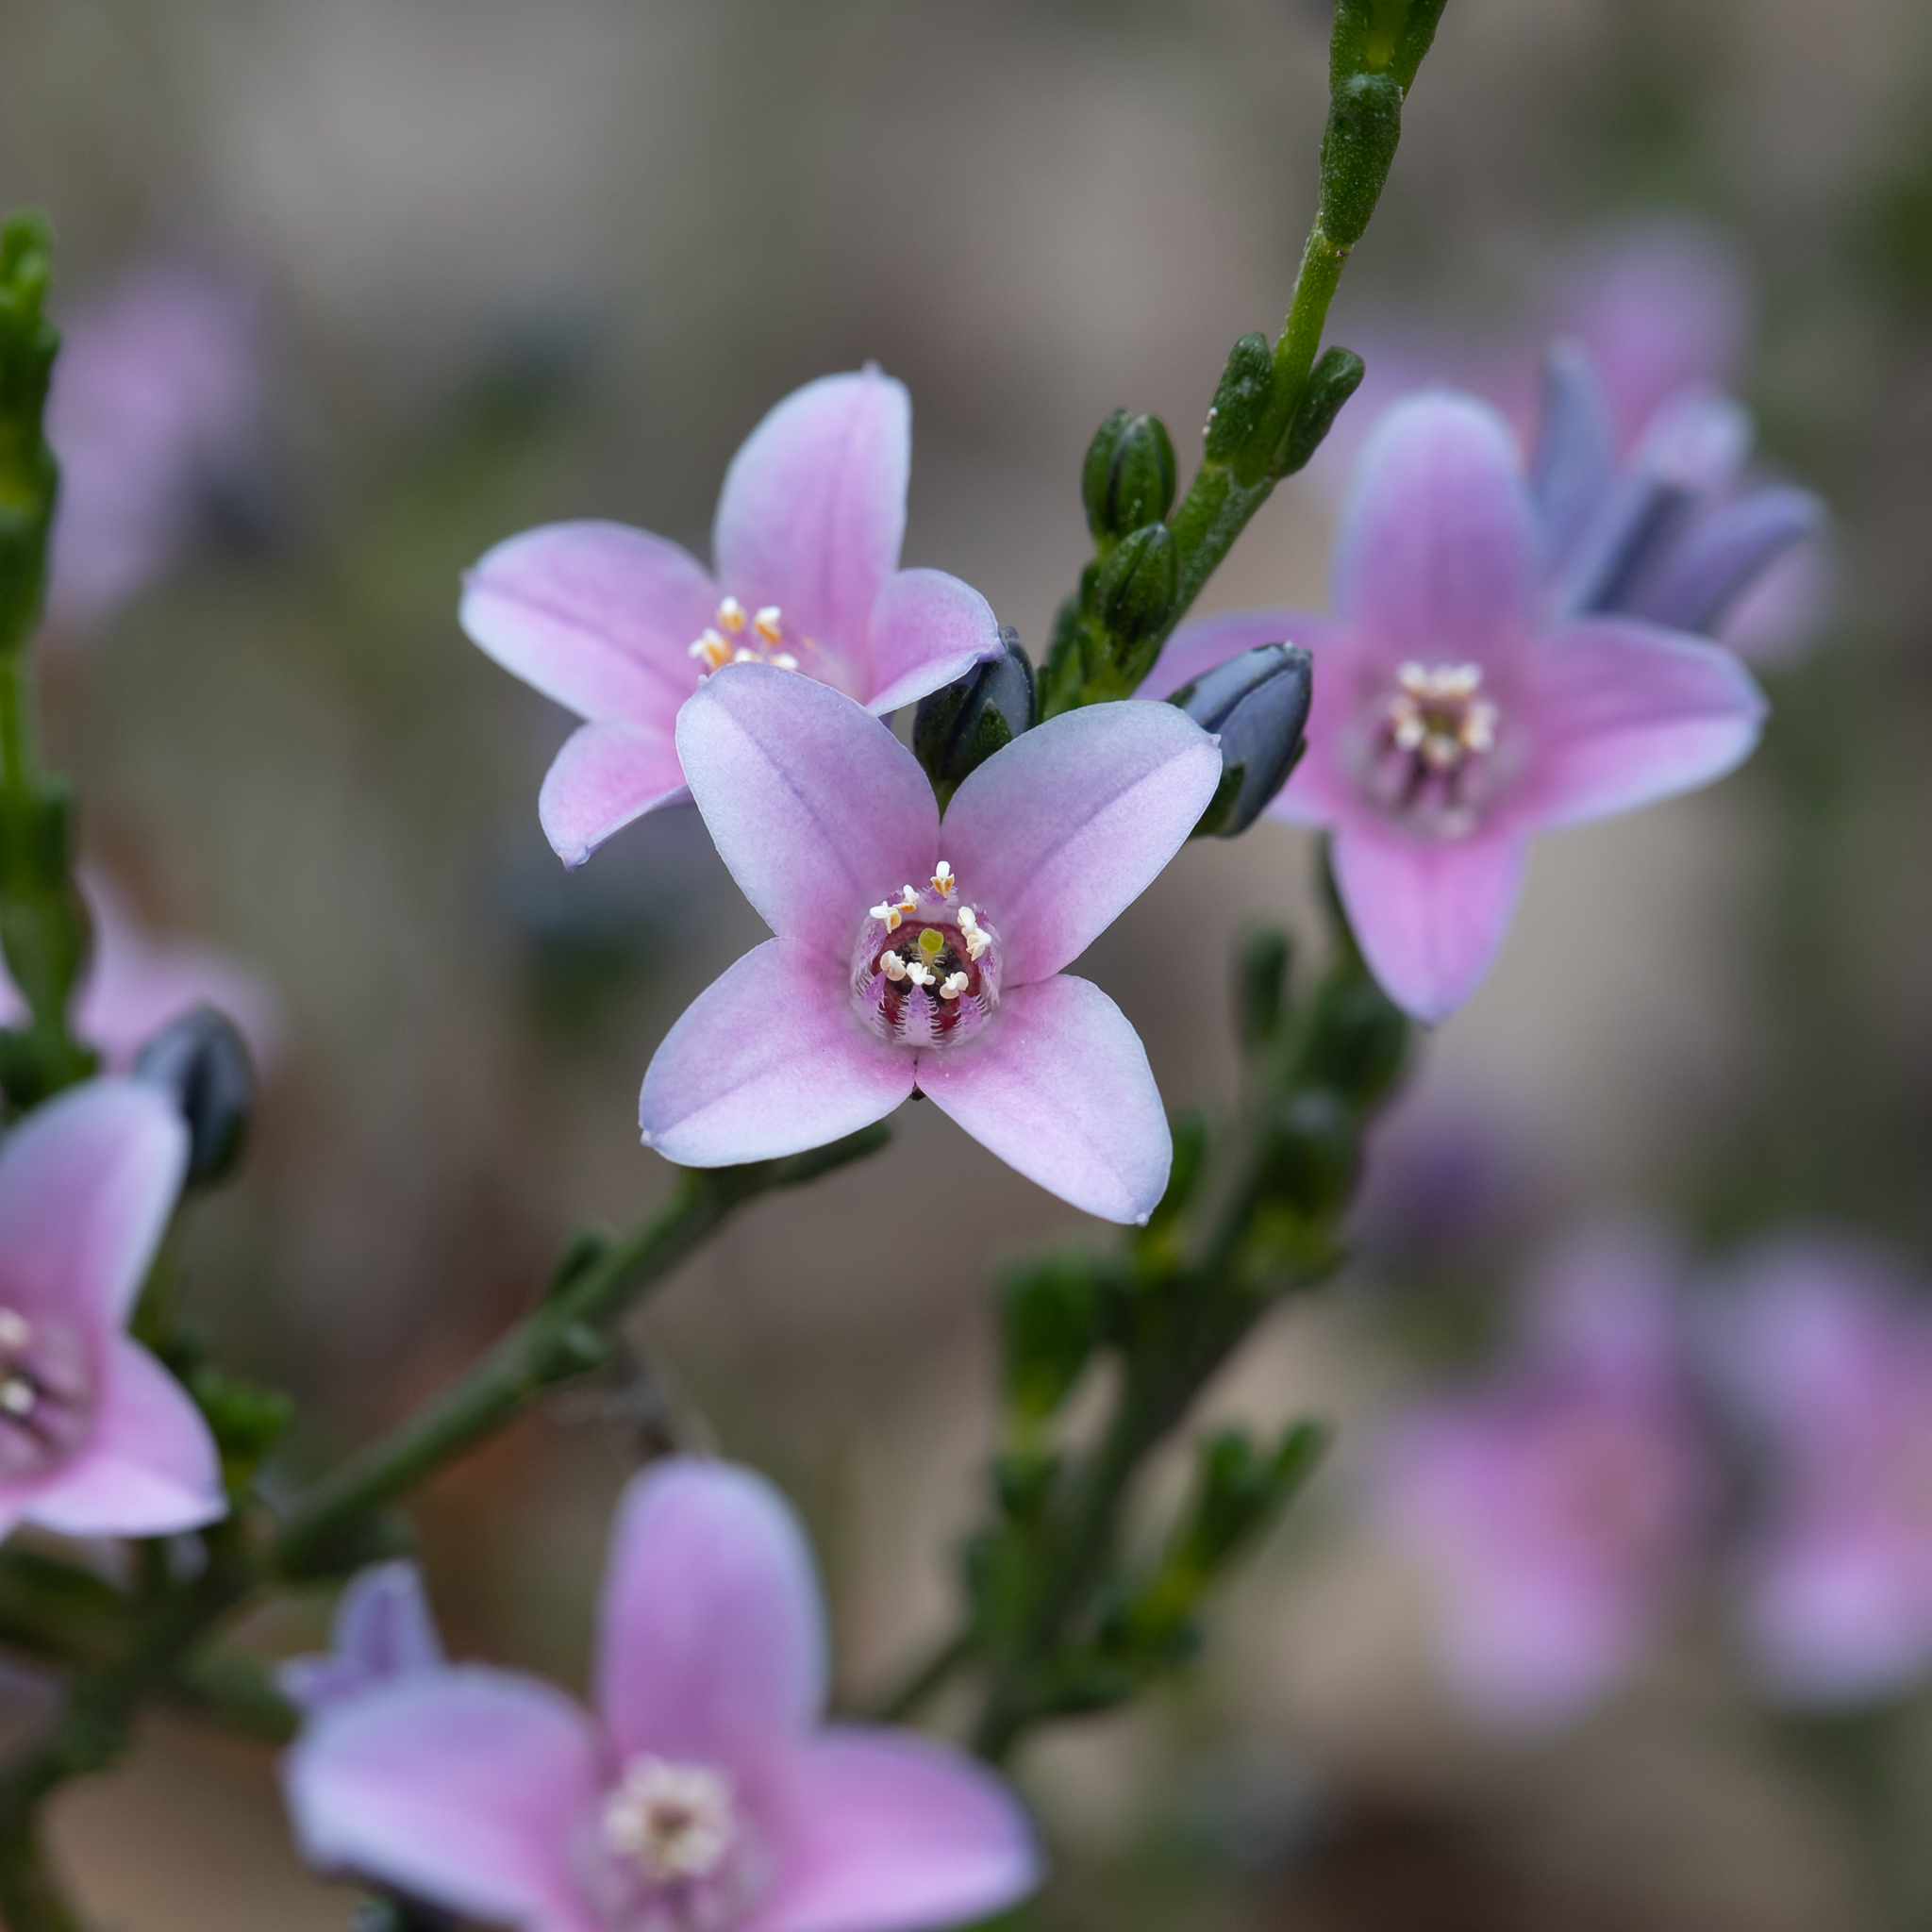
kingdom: Plantae
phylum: Tracheophyta
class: Magnoliopsida
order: Sapindales
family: Rutaceae
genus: Cyanothamnus
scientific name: Cyanothamnus coerulescens
